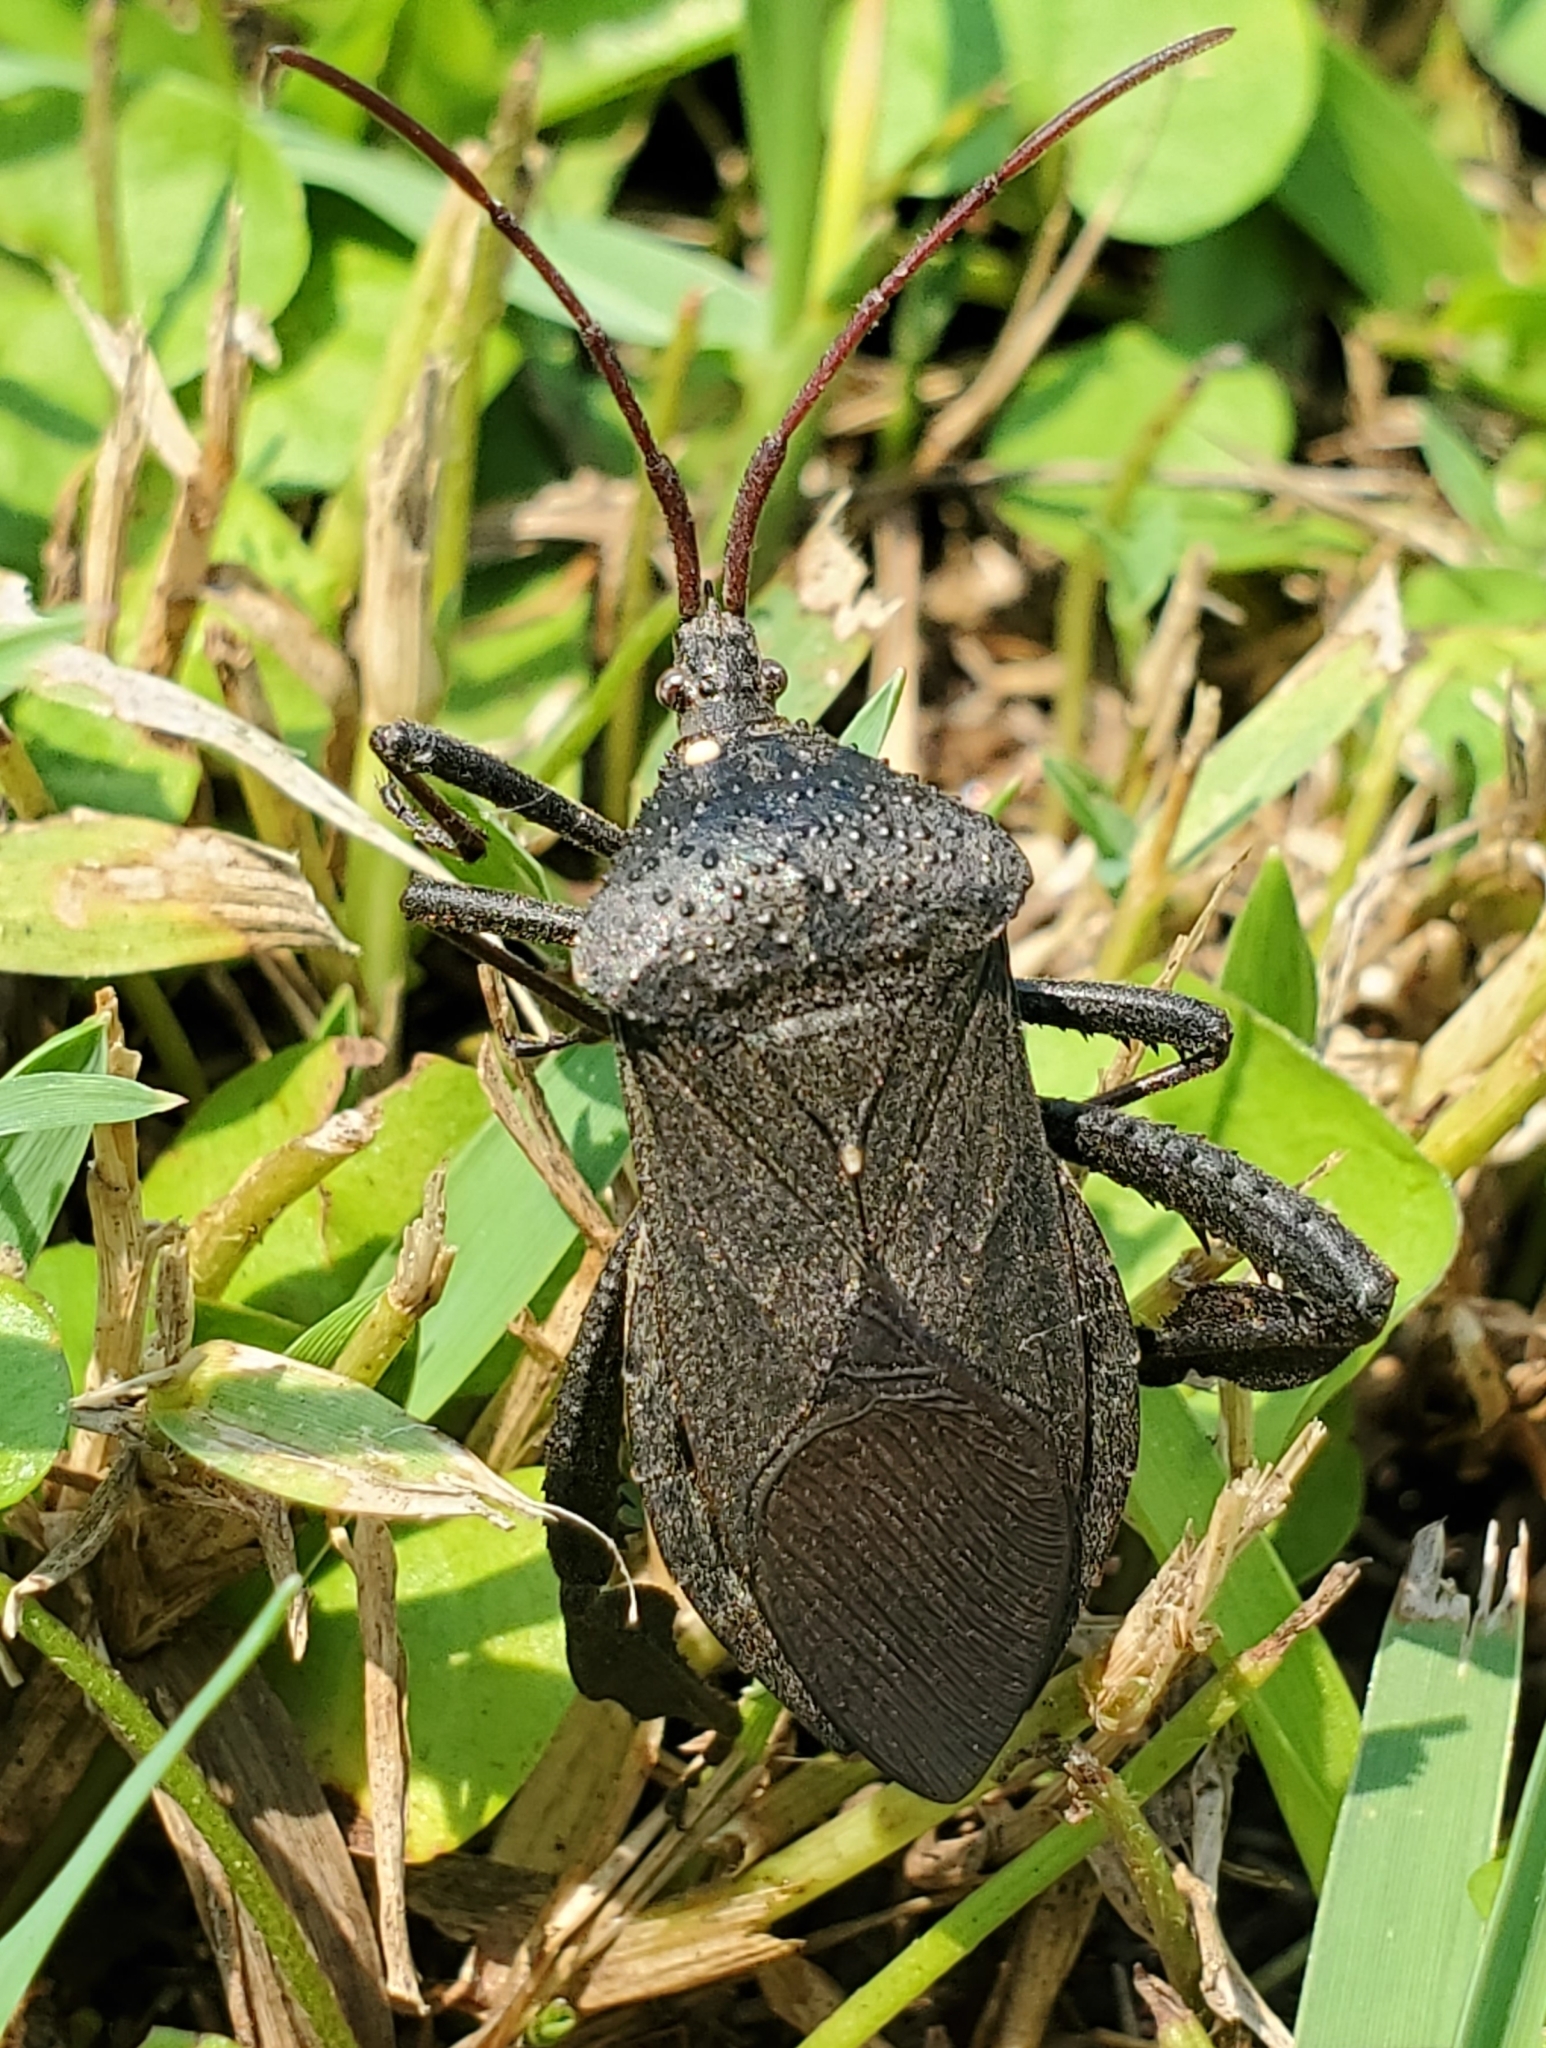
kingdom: Animalia
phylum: Arthropoda
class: Insecta
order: Hemiptera
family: Coreidae
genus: Acanthocephala
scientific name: Acanthocephala femorata
